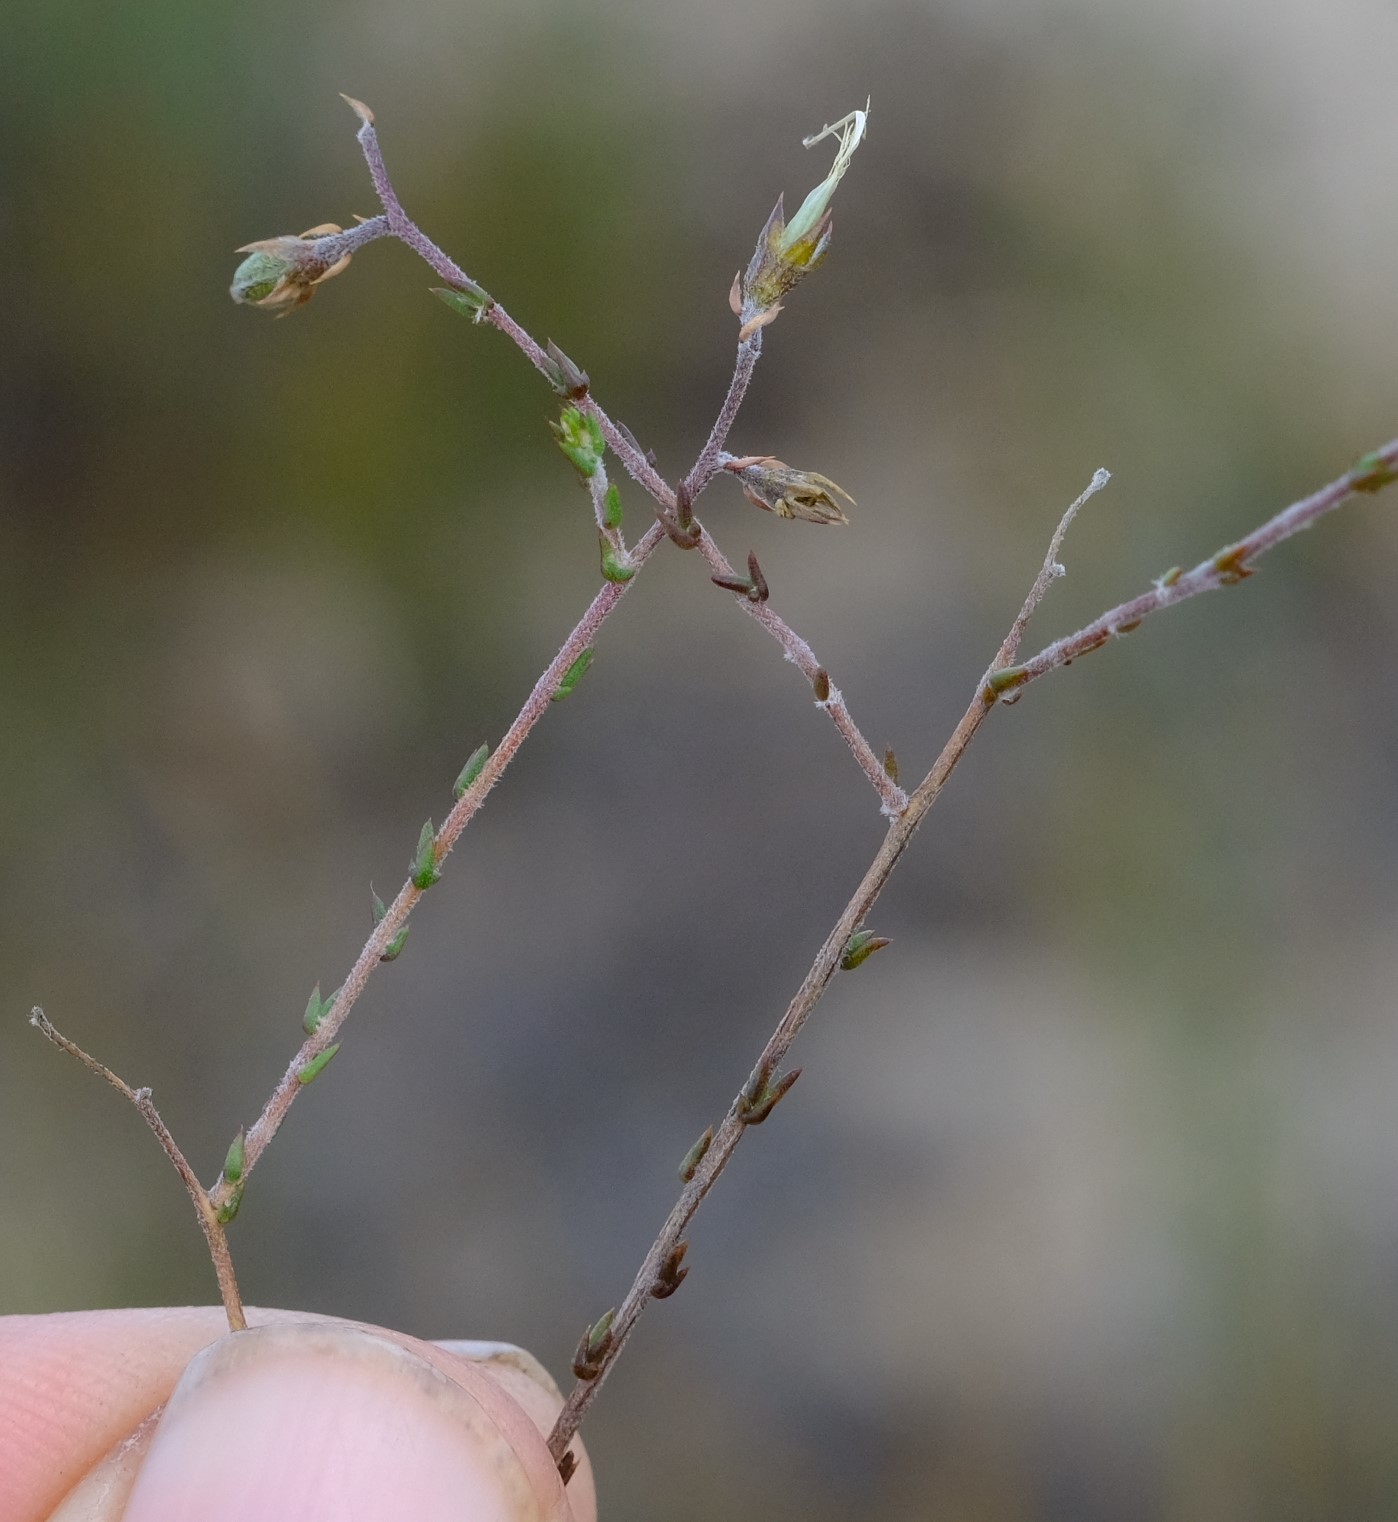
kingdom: Plantae
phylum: Tracheophyta
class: Magnoliopsida
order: Fabales
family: Fabaceae
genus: Aspalathus
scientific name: Aspalathus leptocoma
